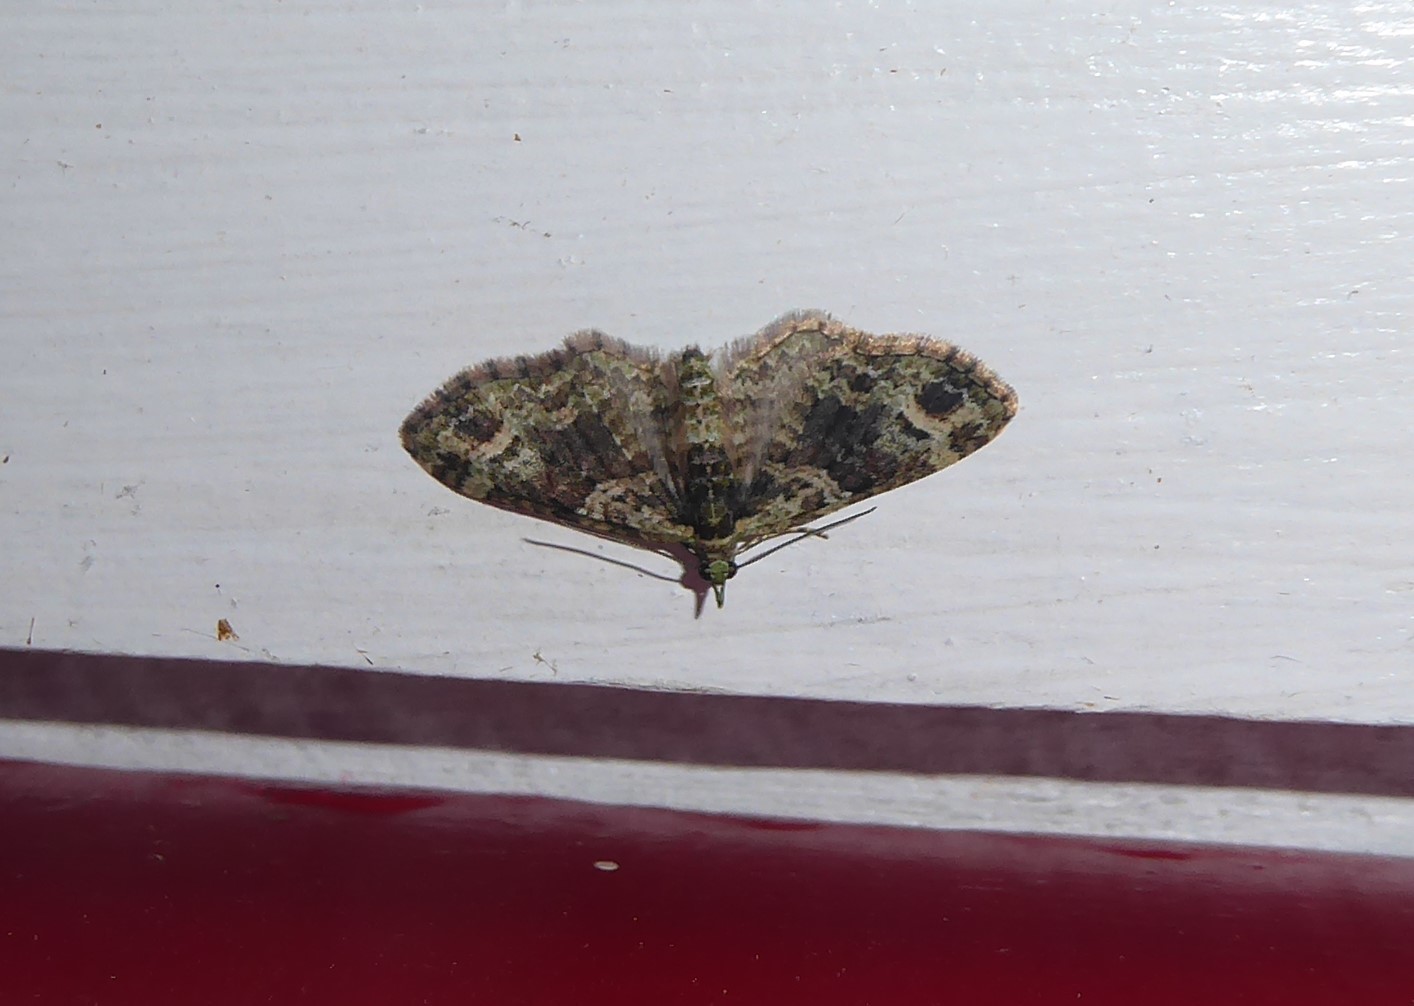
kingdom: Animalia
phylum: Arthropoda
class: Insecta
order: Lepidoptera
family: Geometridae
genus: Idaea
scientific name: Idaea mutanda
